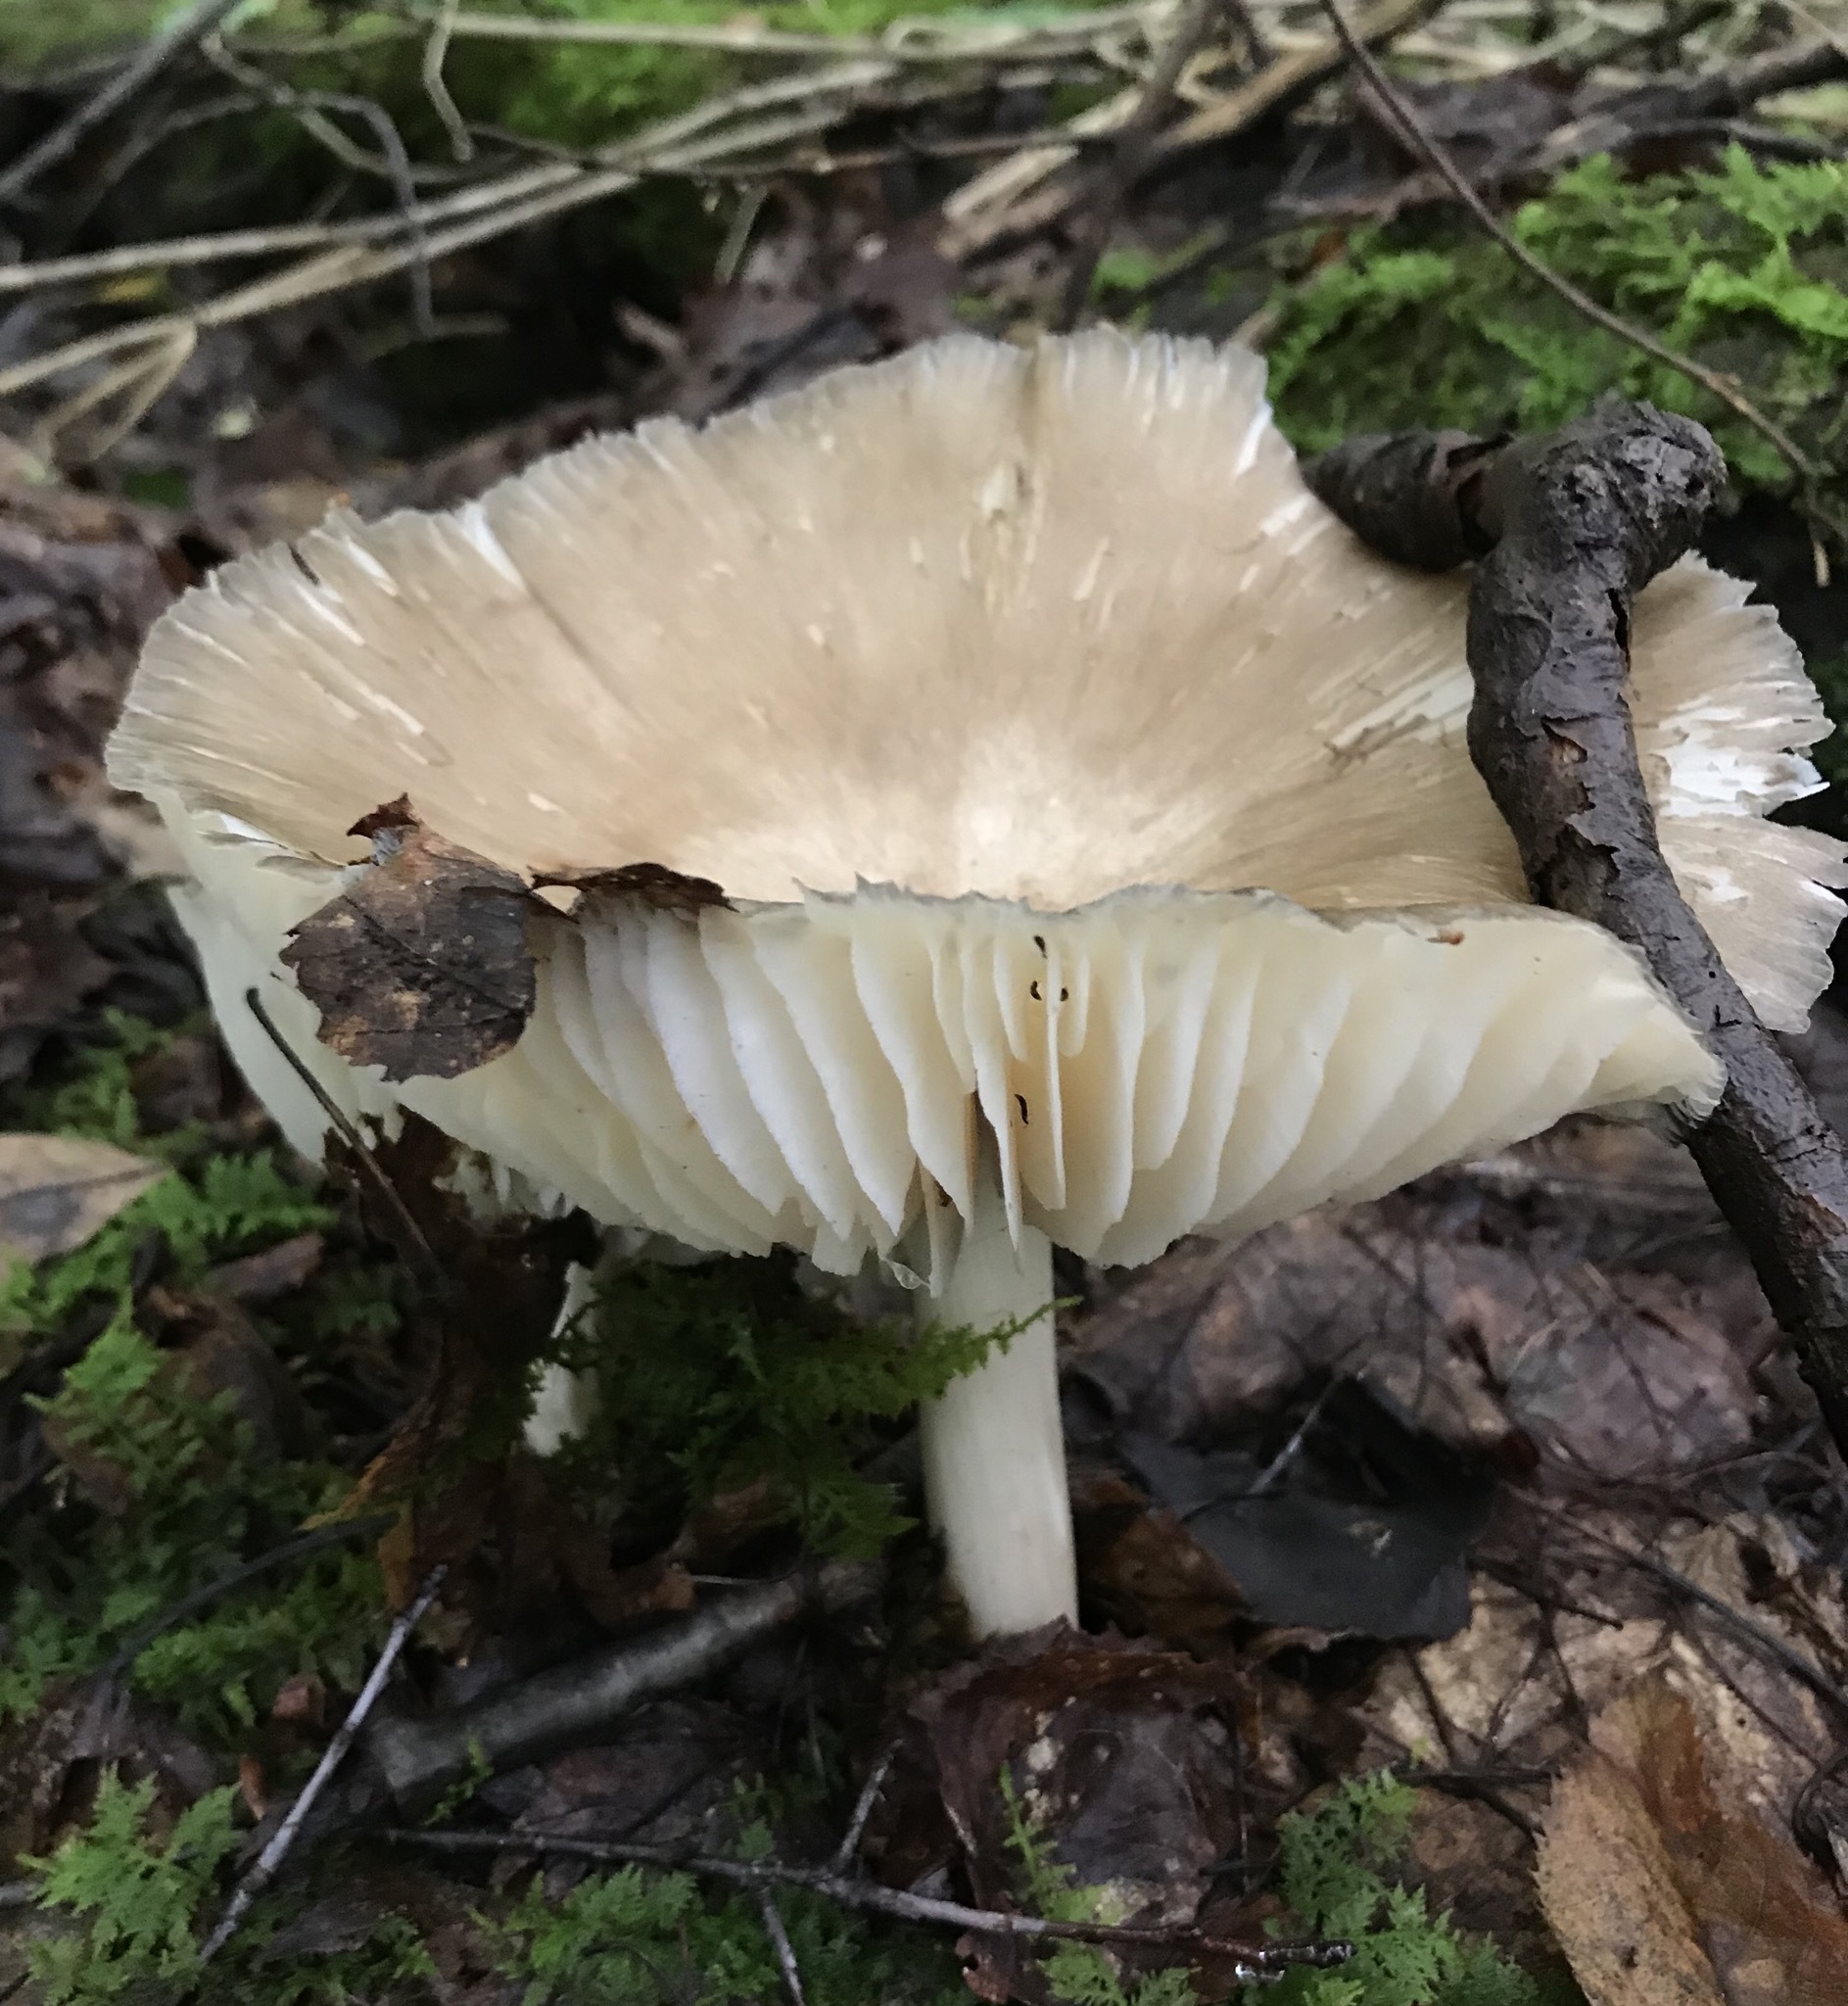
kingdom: Fungi
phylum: Basidiomycota
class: Agaricomycetes
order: Agaricales
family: Tricholomataceae
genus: Megacollybia
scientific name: Megacollybia rodmanii
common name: Eastern american platterful mushroom
